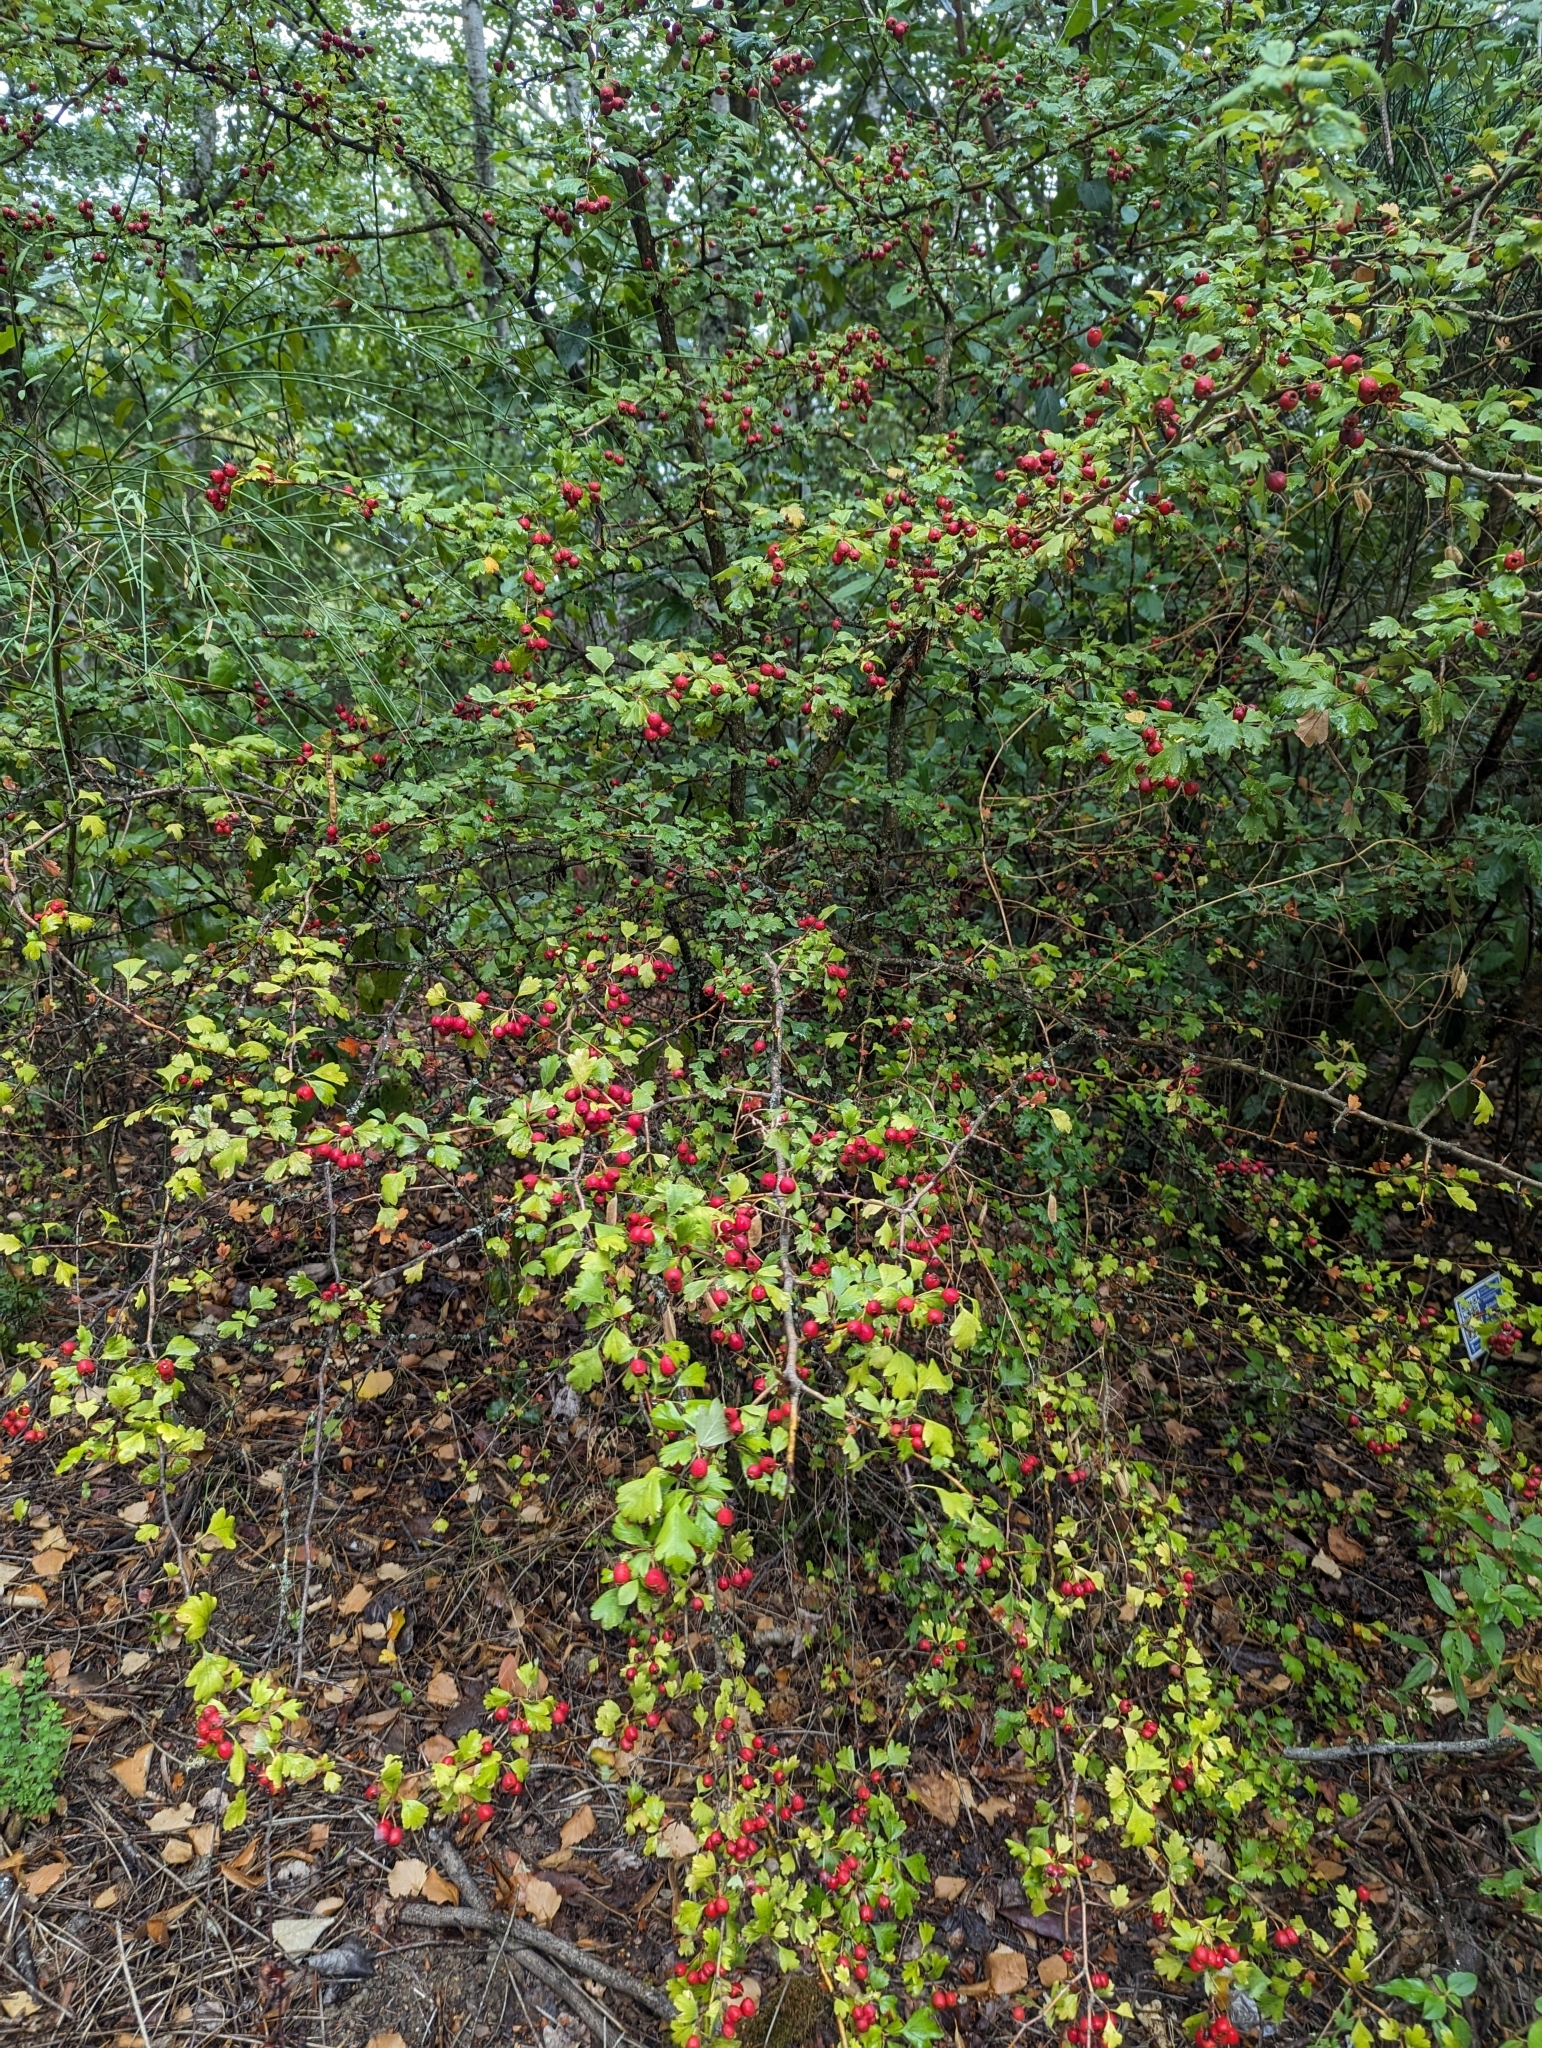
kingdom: Plantae
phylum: Tracheophyta
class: Magnoliopsida
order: Rosales
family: Rosaceae
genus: Crataegus
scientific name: Crataegus monogyna
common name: Hawthorn
